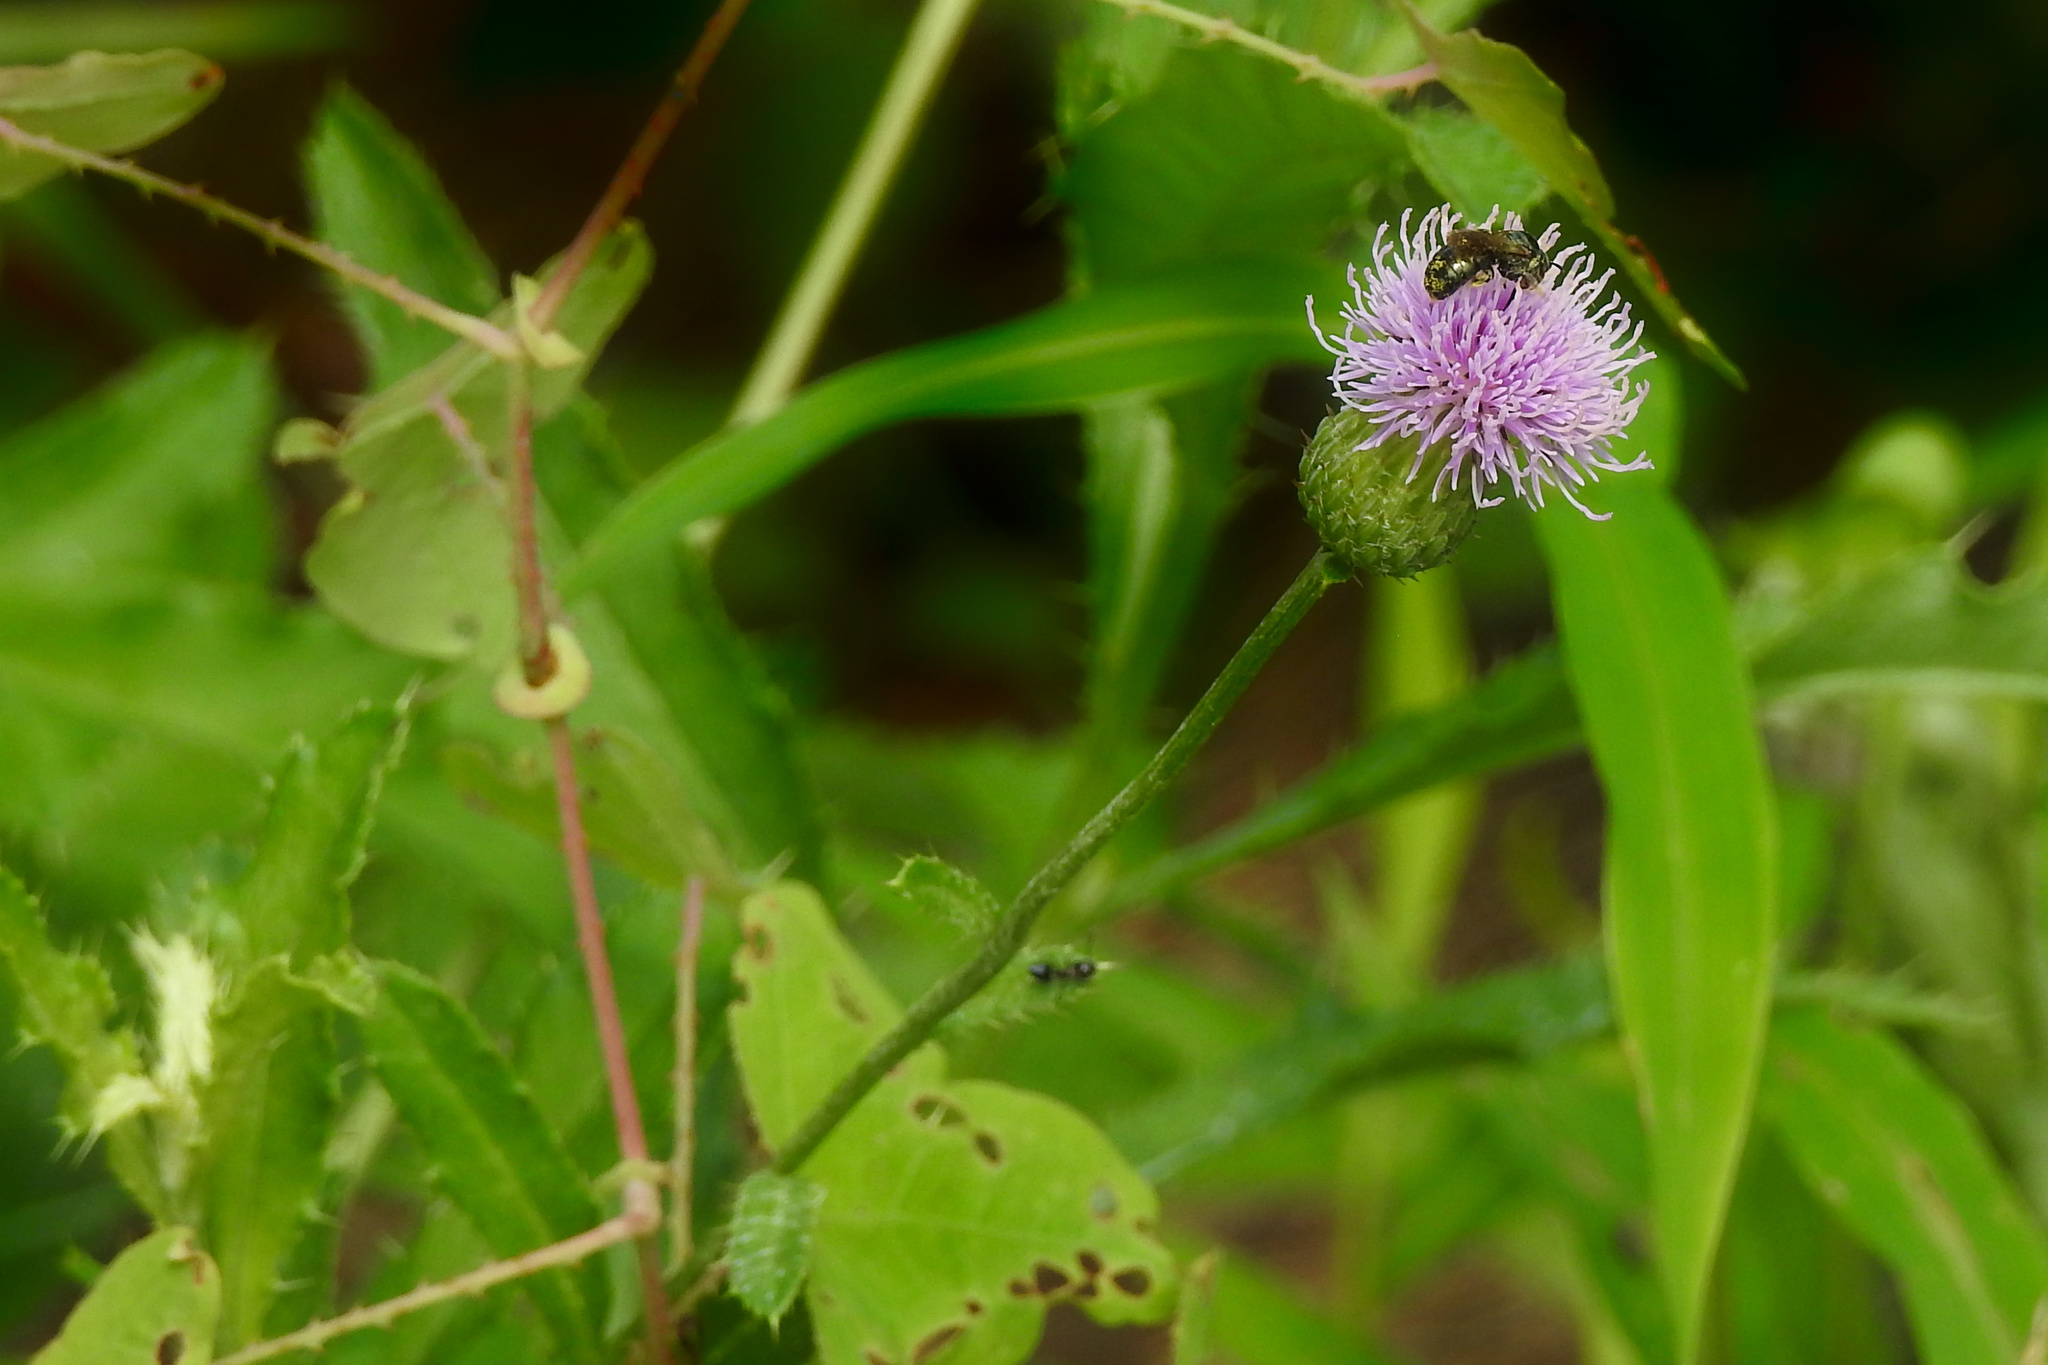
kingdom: Plantae
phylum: Tracheophyta
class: Magnoliopsida
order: Asterales
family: Asteraceae
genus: Cirsium
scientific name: Cirsium arvense
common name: Creeping thistle
